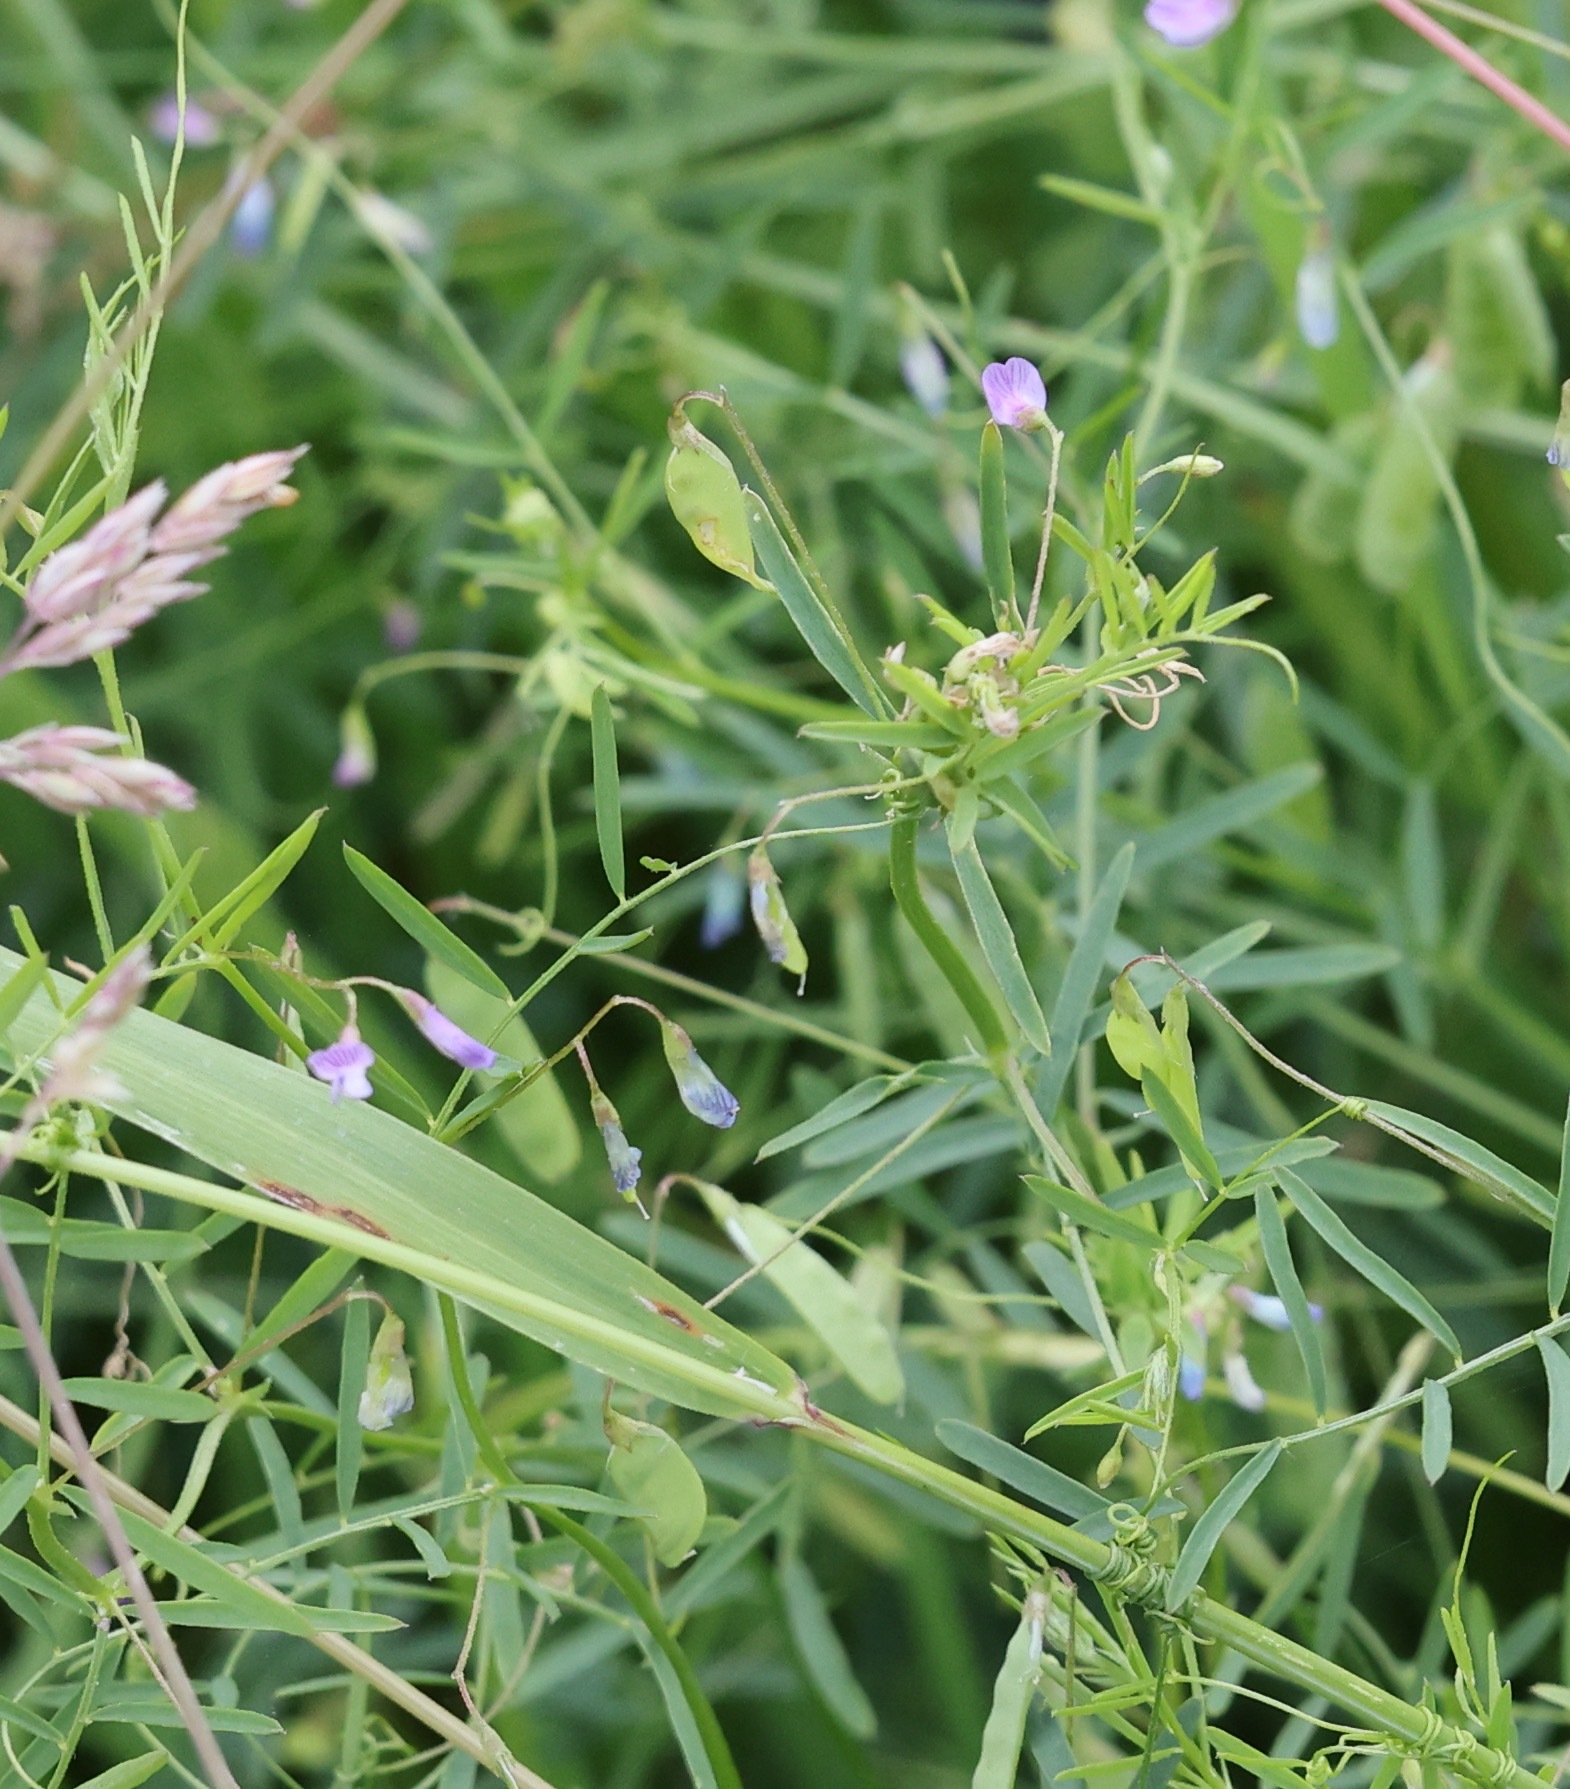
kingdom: Plantae
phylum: Tracheophyta
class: Magnoliopsida
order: Fabales
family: Fabaceae
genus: Vicia
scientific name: Vicia tetrasperma
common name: Smooth tare
